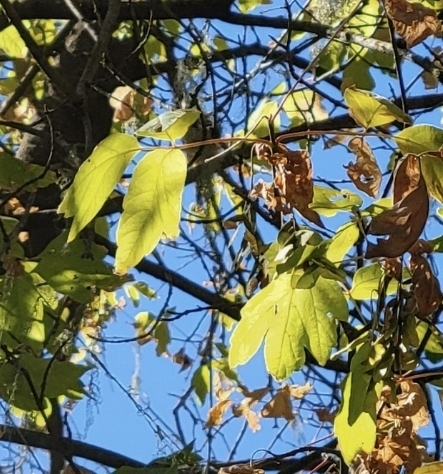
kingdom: Plantae
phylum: Tracheophyta
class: Magnoliopsida
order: Sapindales
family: Sapindaceae
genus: Acer
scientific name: Acer negundo
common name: Ashleaf maple
